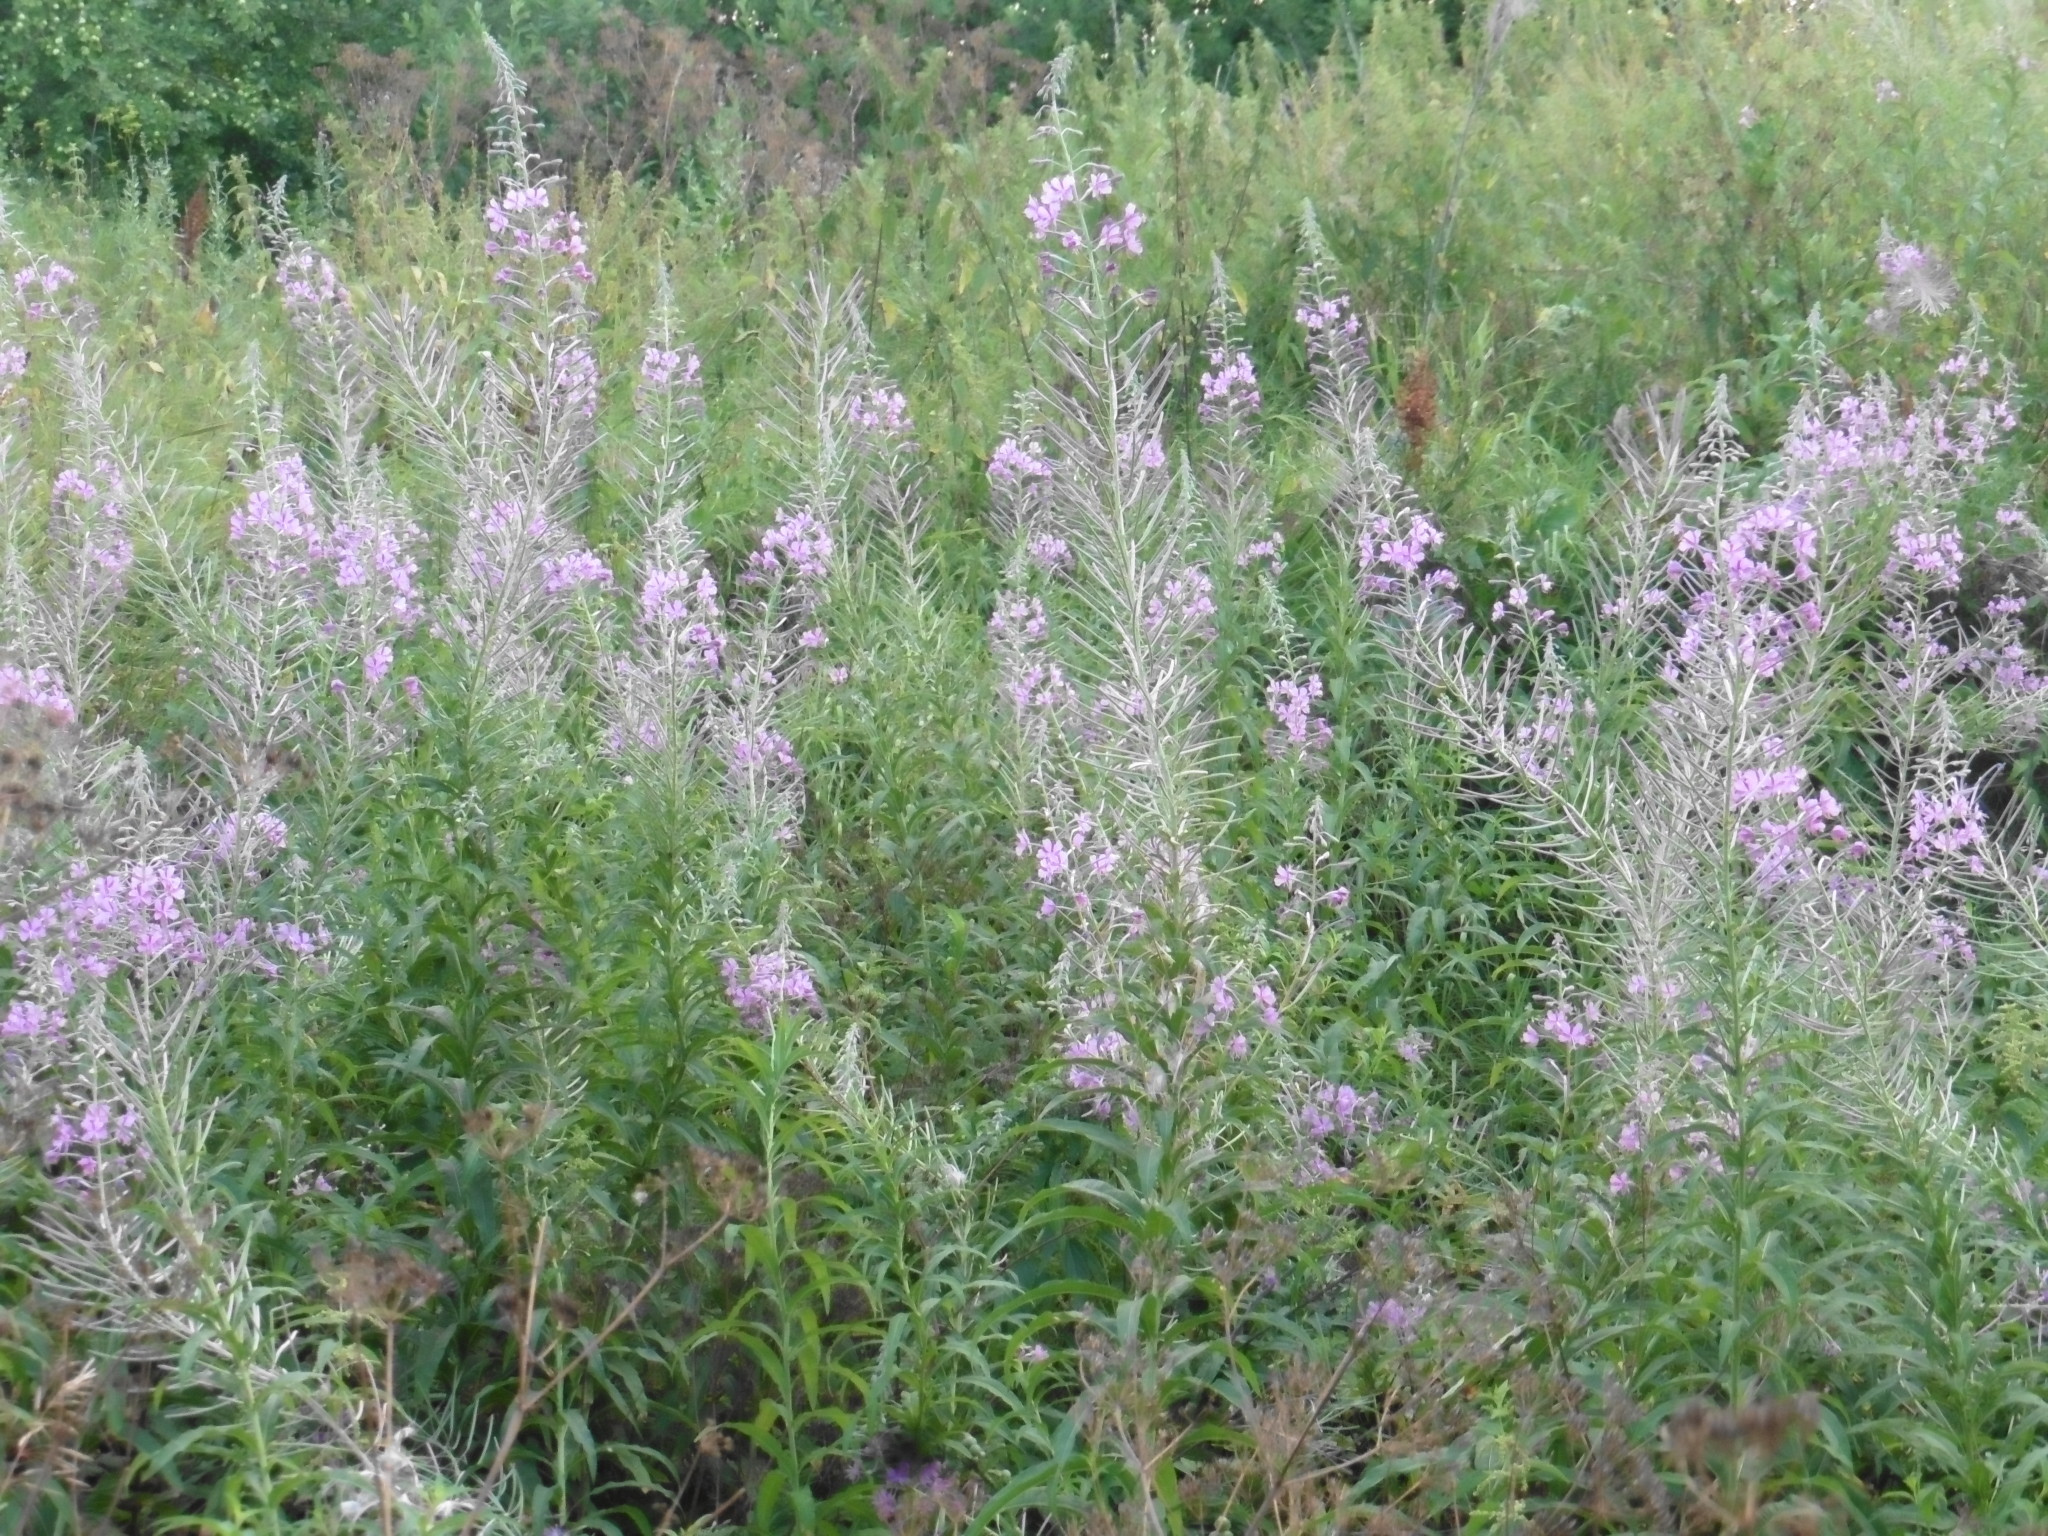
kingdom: Plantae
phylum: Tracheophyta
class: Magnoliopsida
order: Myrtales
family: Onagraceae
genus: Chamaenerion
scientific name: Chamaenerion angustifolium
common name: Fireweed
